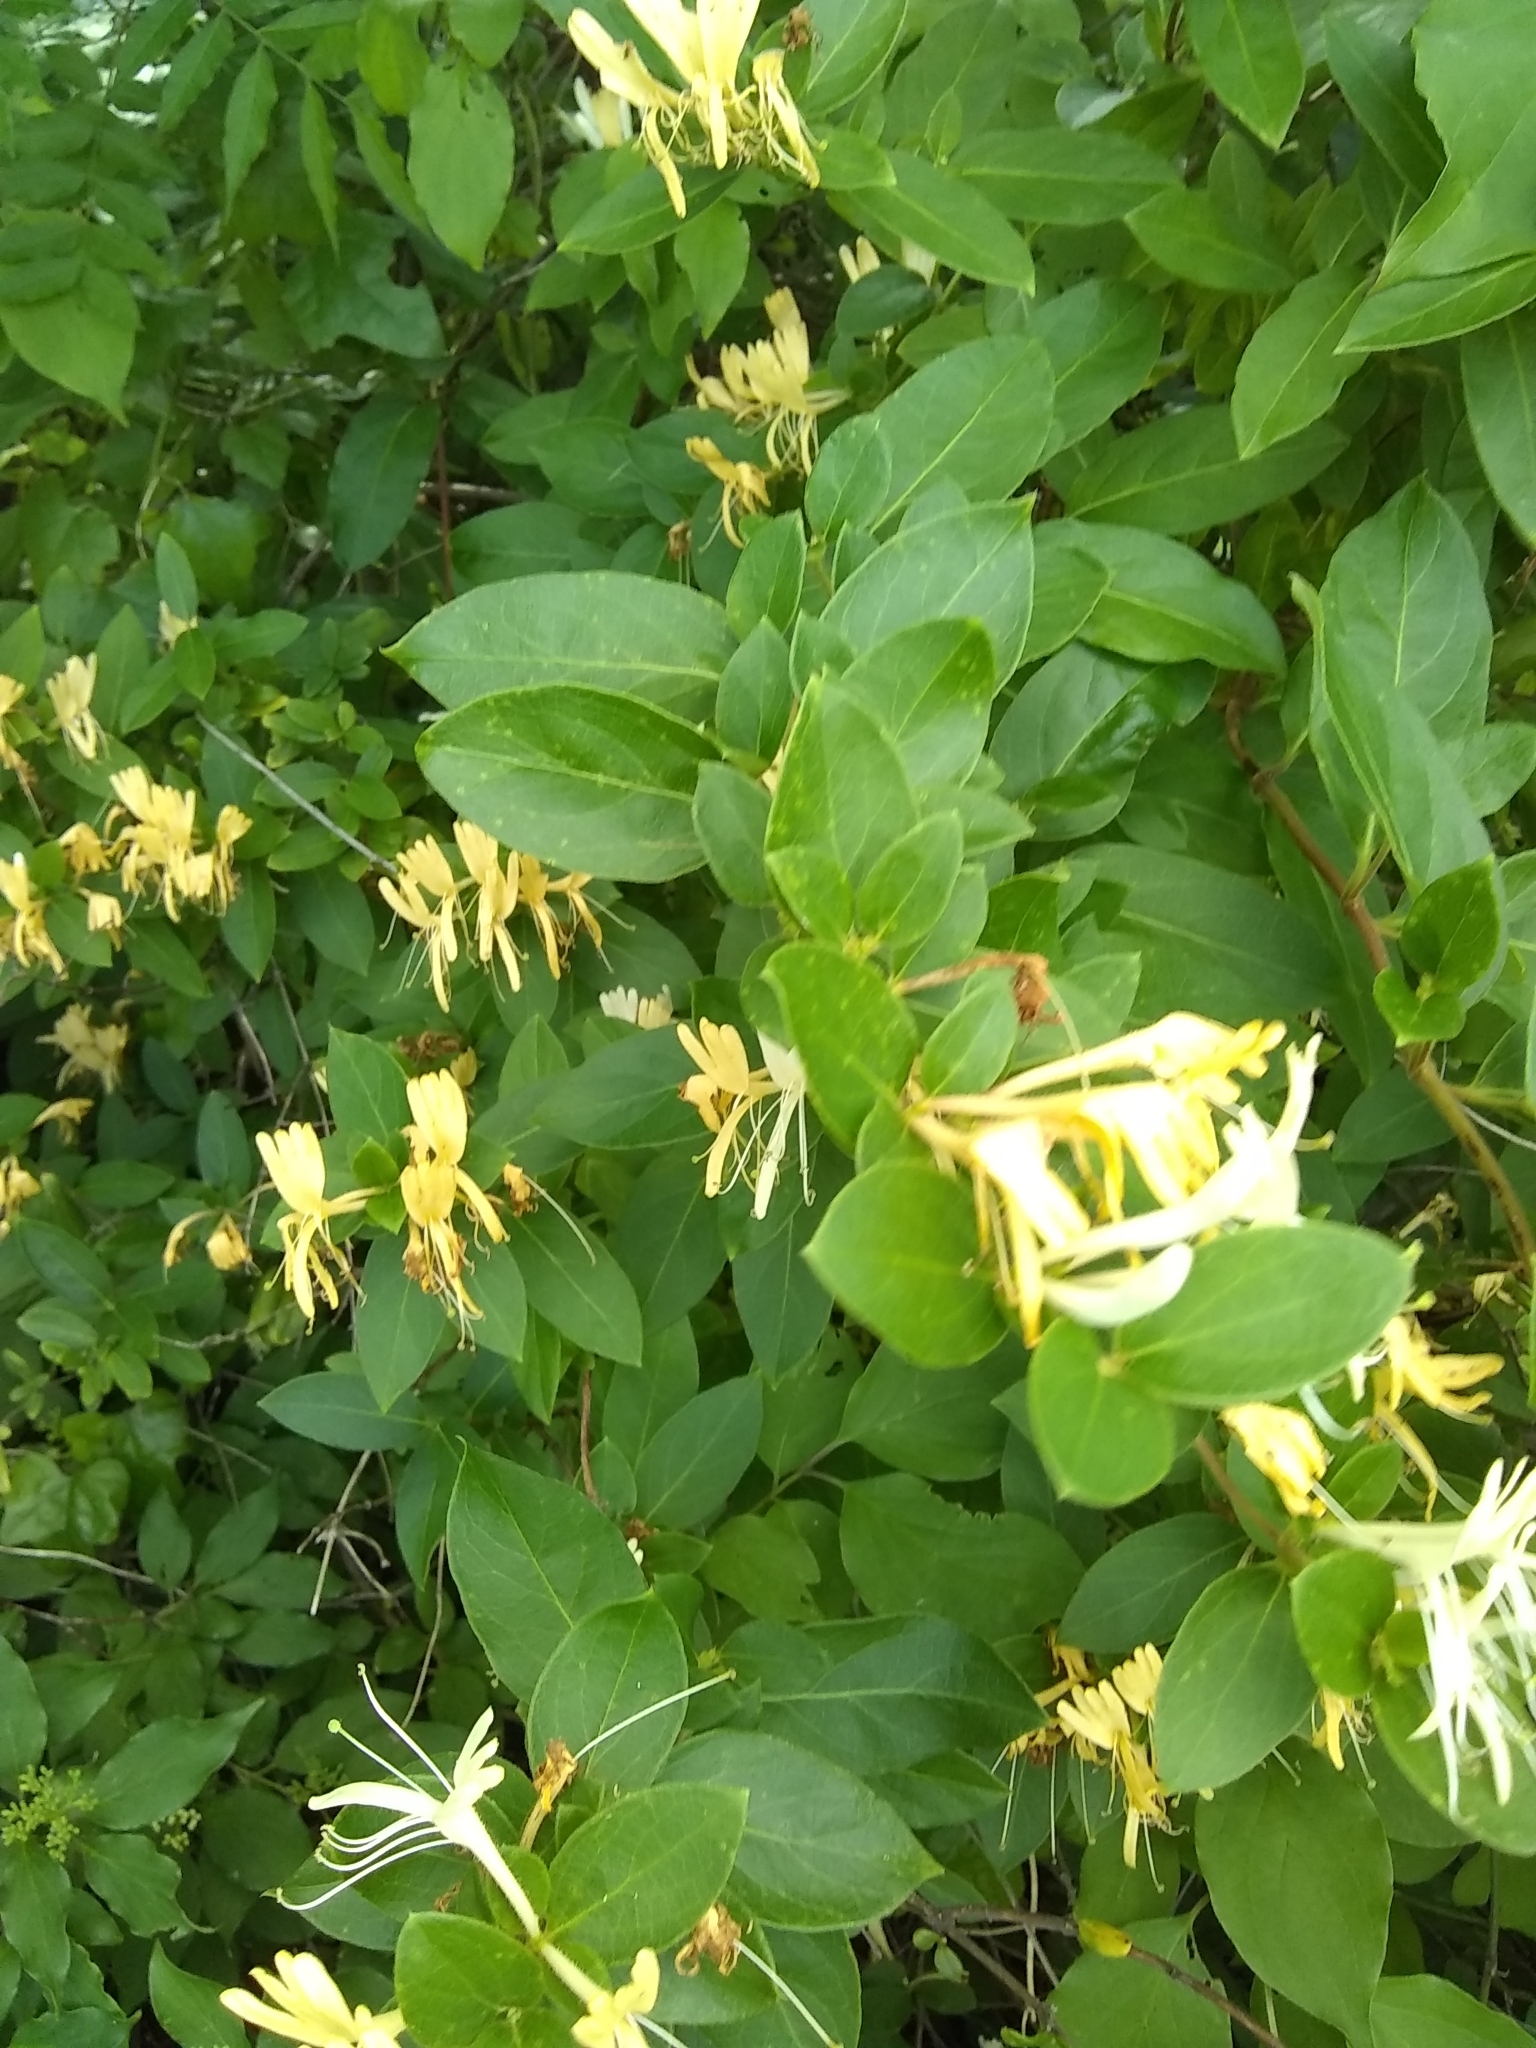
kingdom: Plantae
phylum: Tracheophyta
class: Magnoliopsida
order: Dipsacales
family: Caprifoliaceae
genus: Lonicera
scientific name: Lonicera japonica
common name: Japanese honeysuckle
